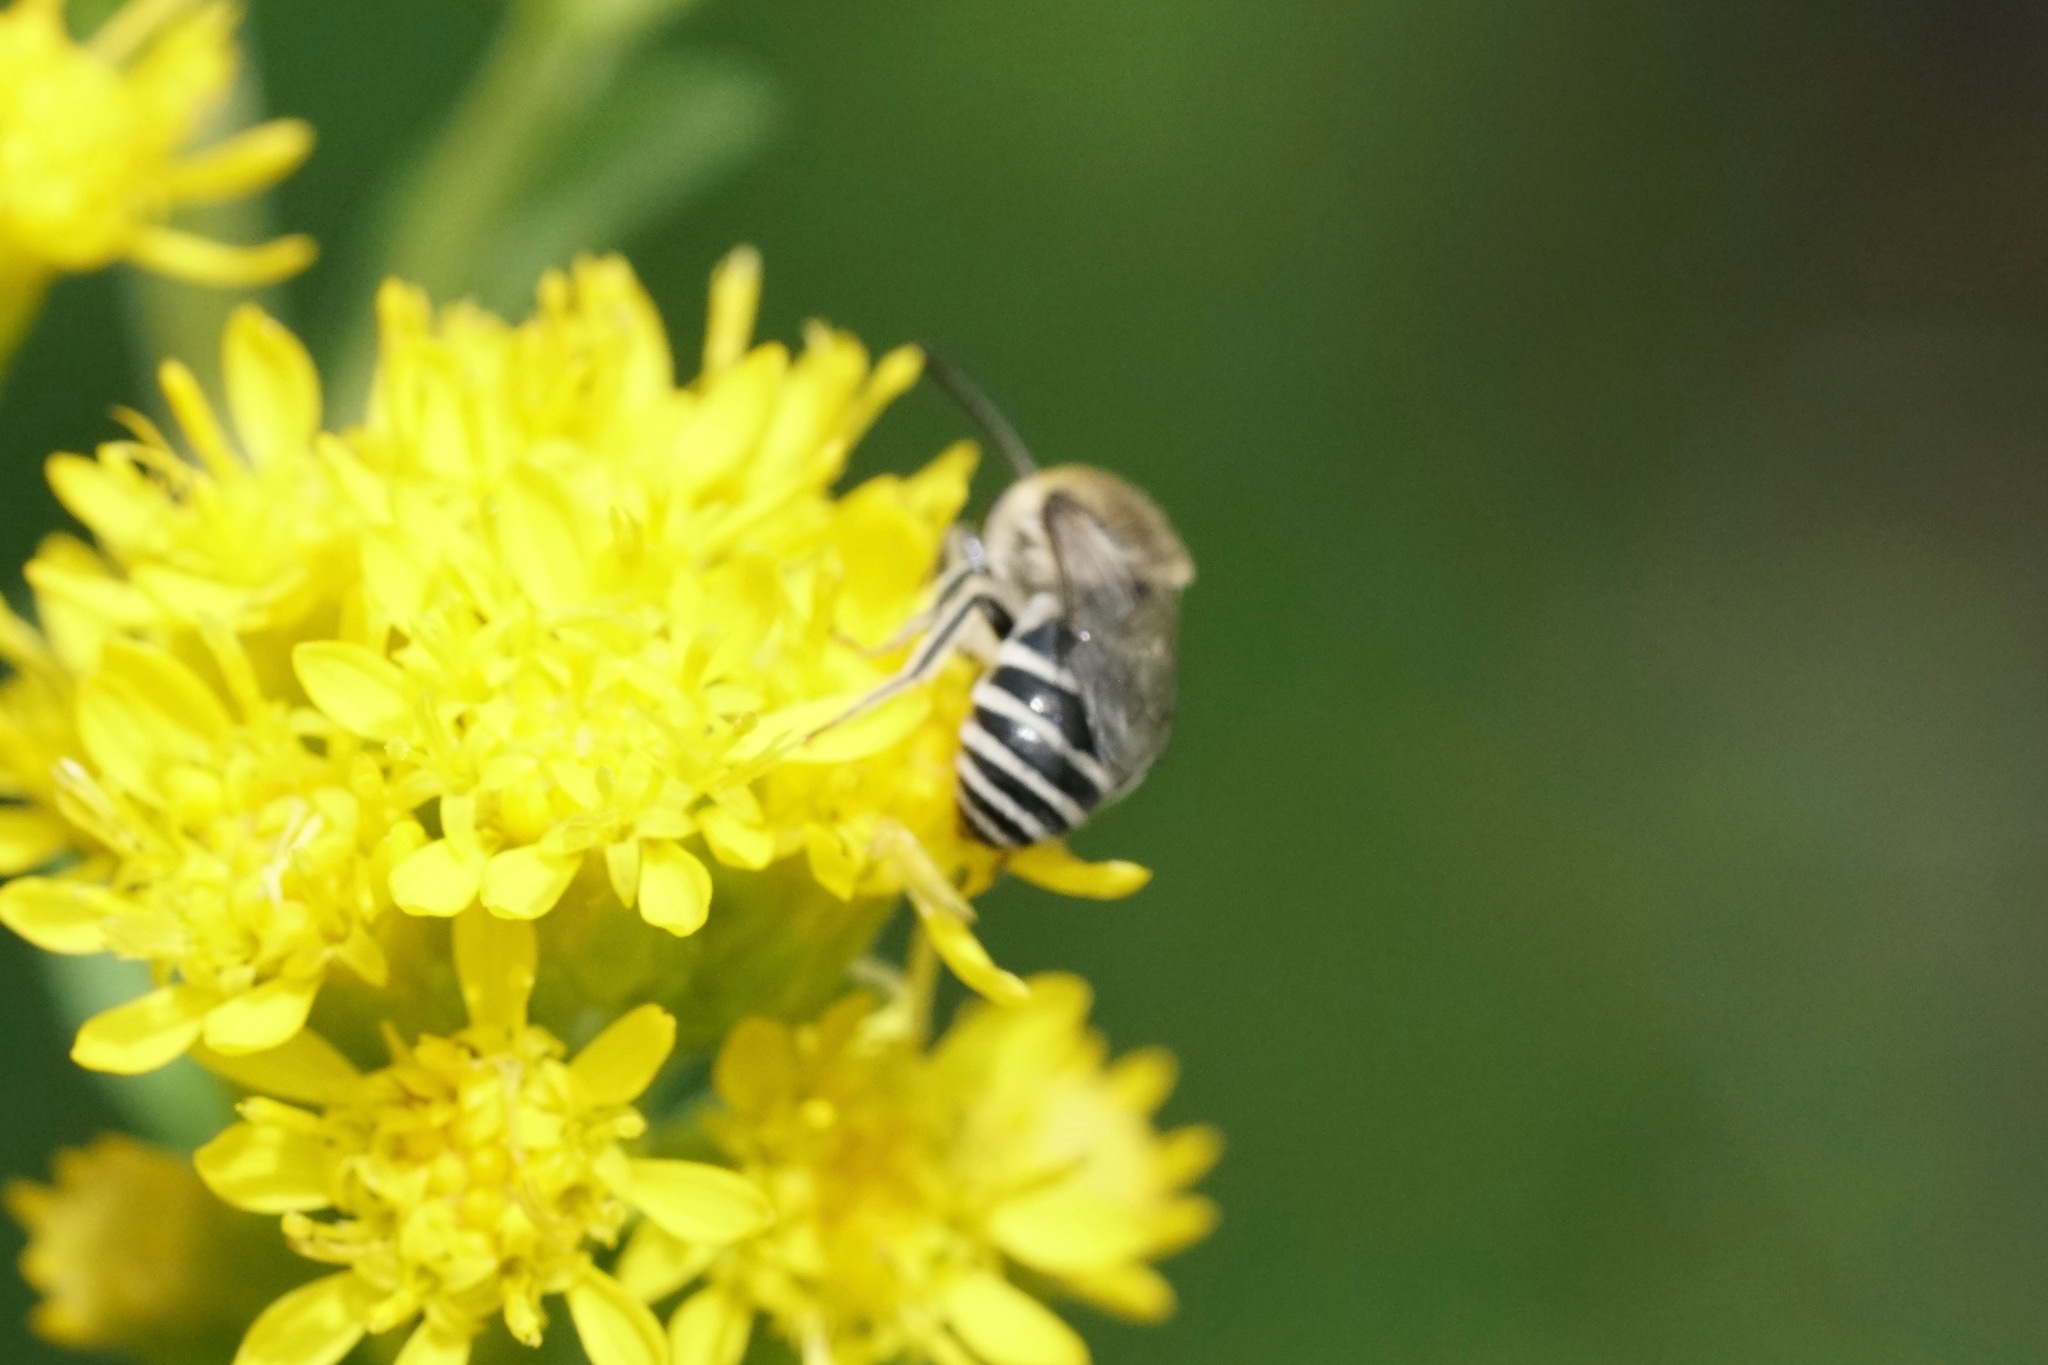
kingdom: Animalia
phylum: Arthropoda
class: Insecta
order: Hymenoptera
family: Colletidae
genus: Colletes
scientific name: Colletes simulans
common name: Spine-shouldered cellophane bee
